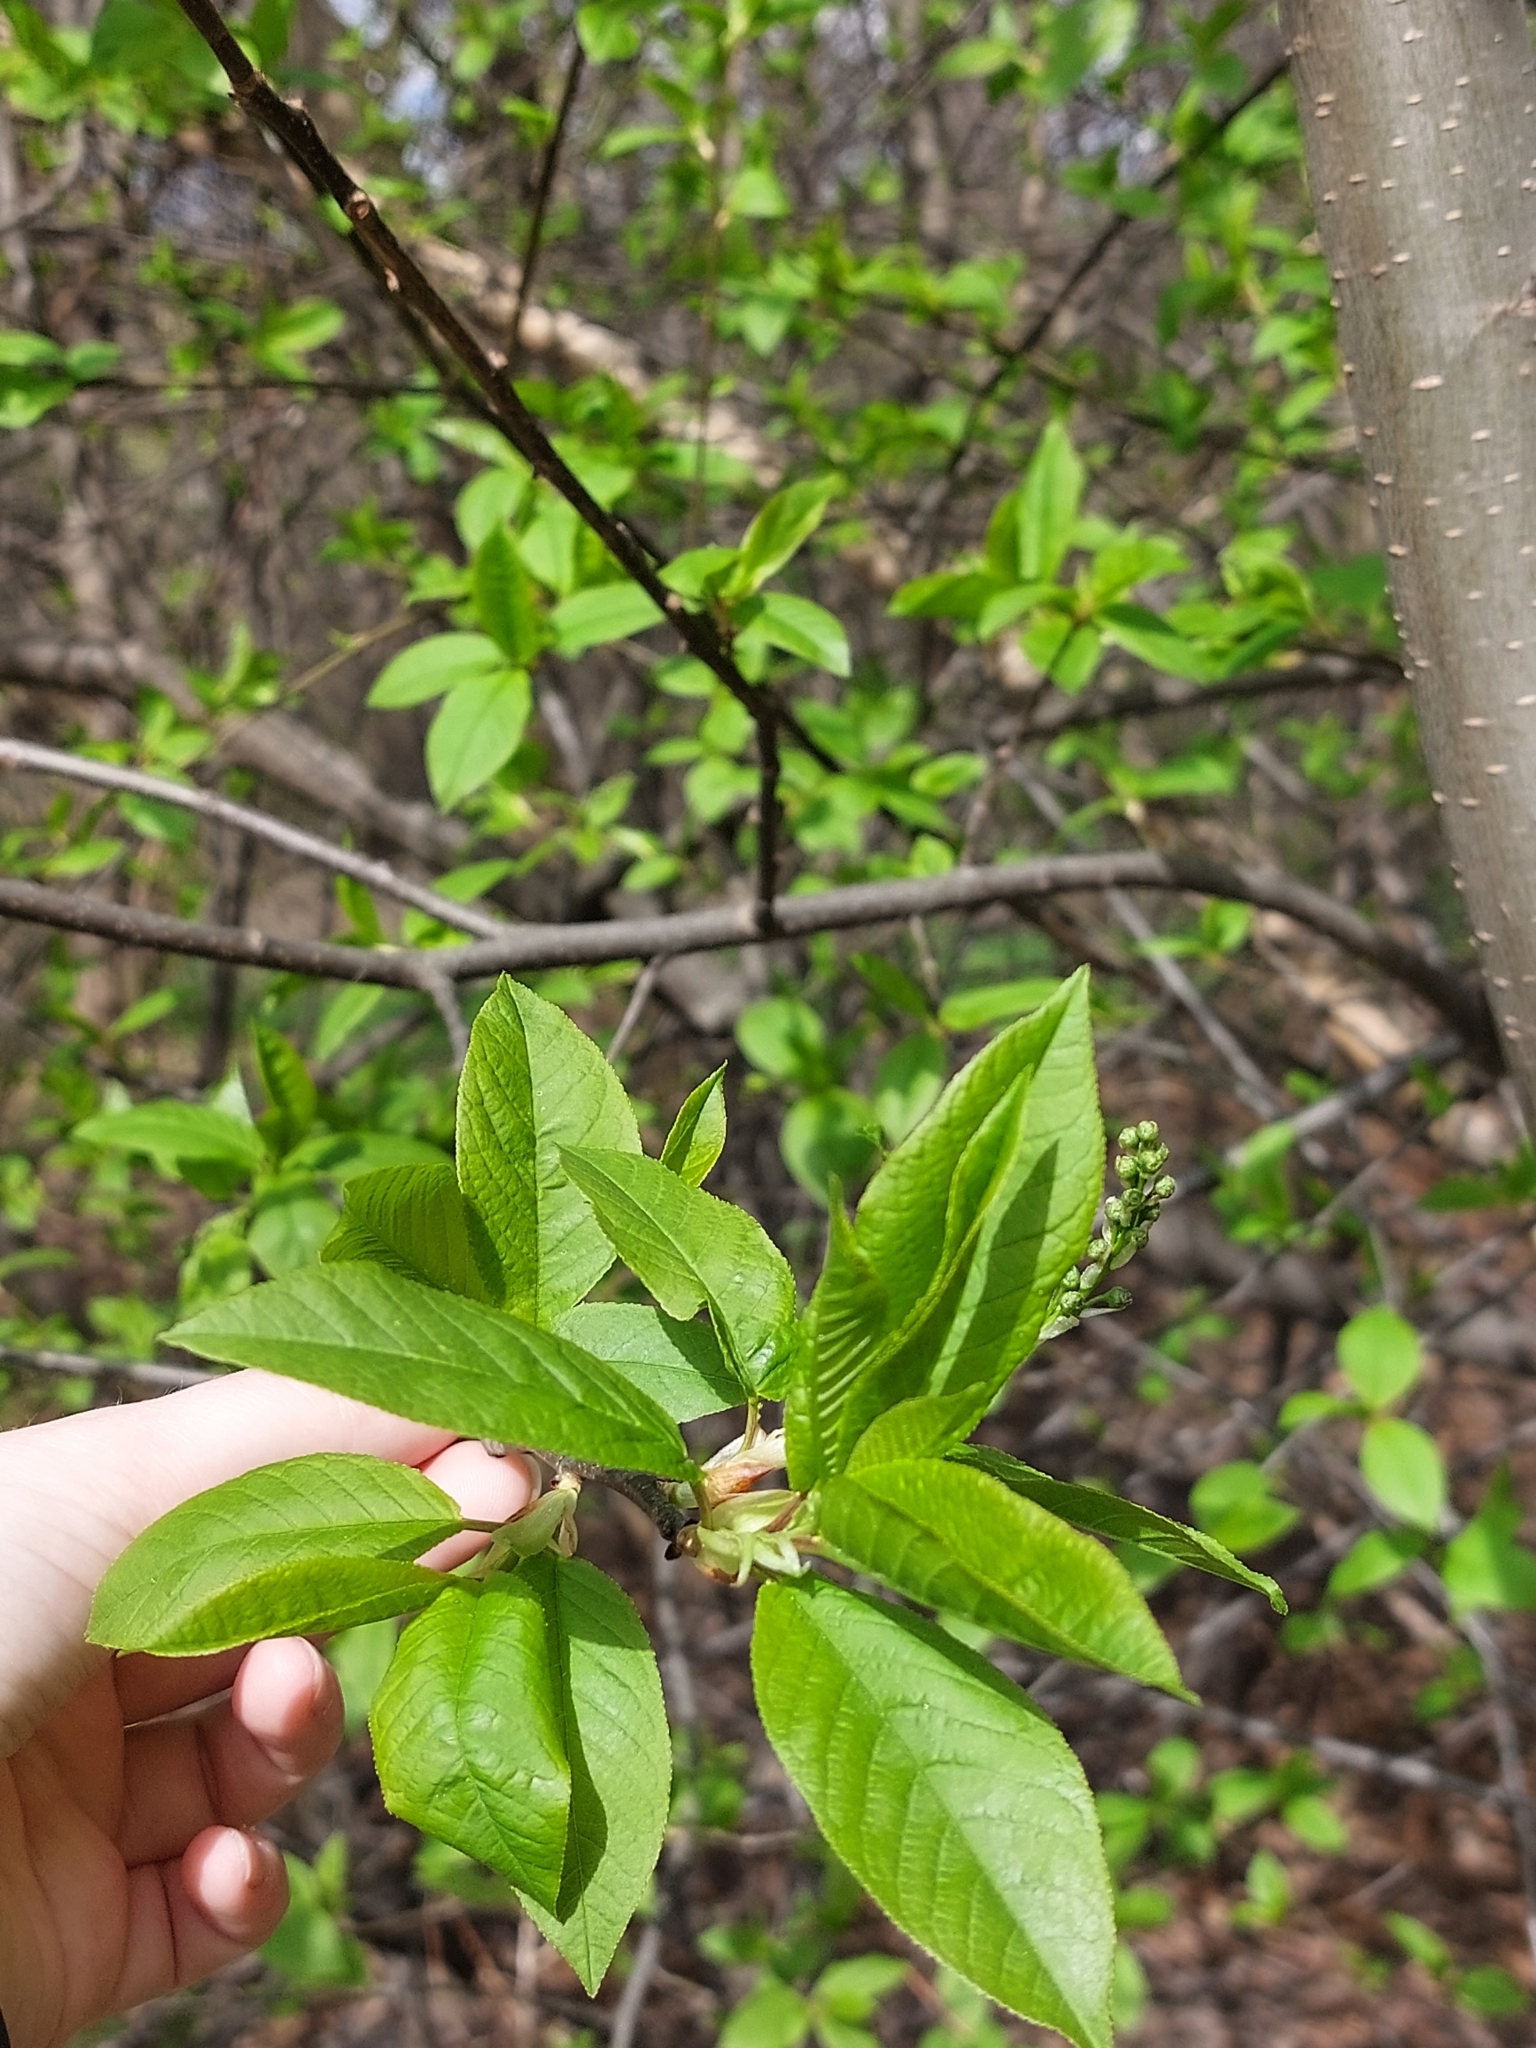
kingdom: Plantae
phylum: Tracheophyta
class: Magnoliopsida
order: Rosales
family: Rosaceae
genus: Prunus
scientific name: Prunus padus
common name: Bird cherry
